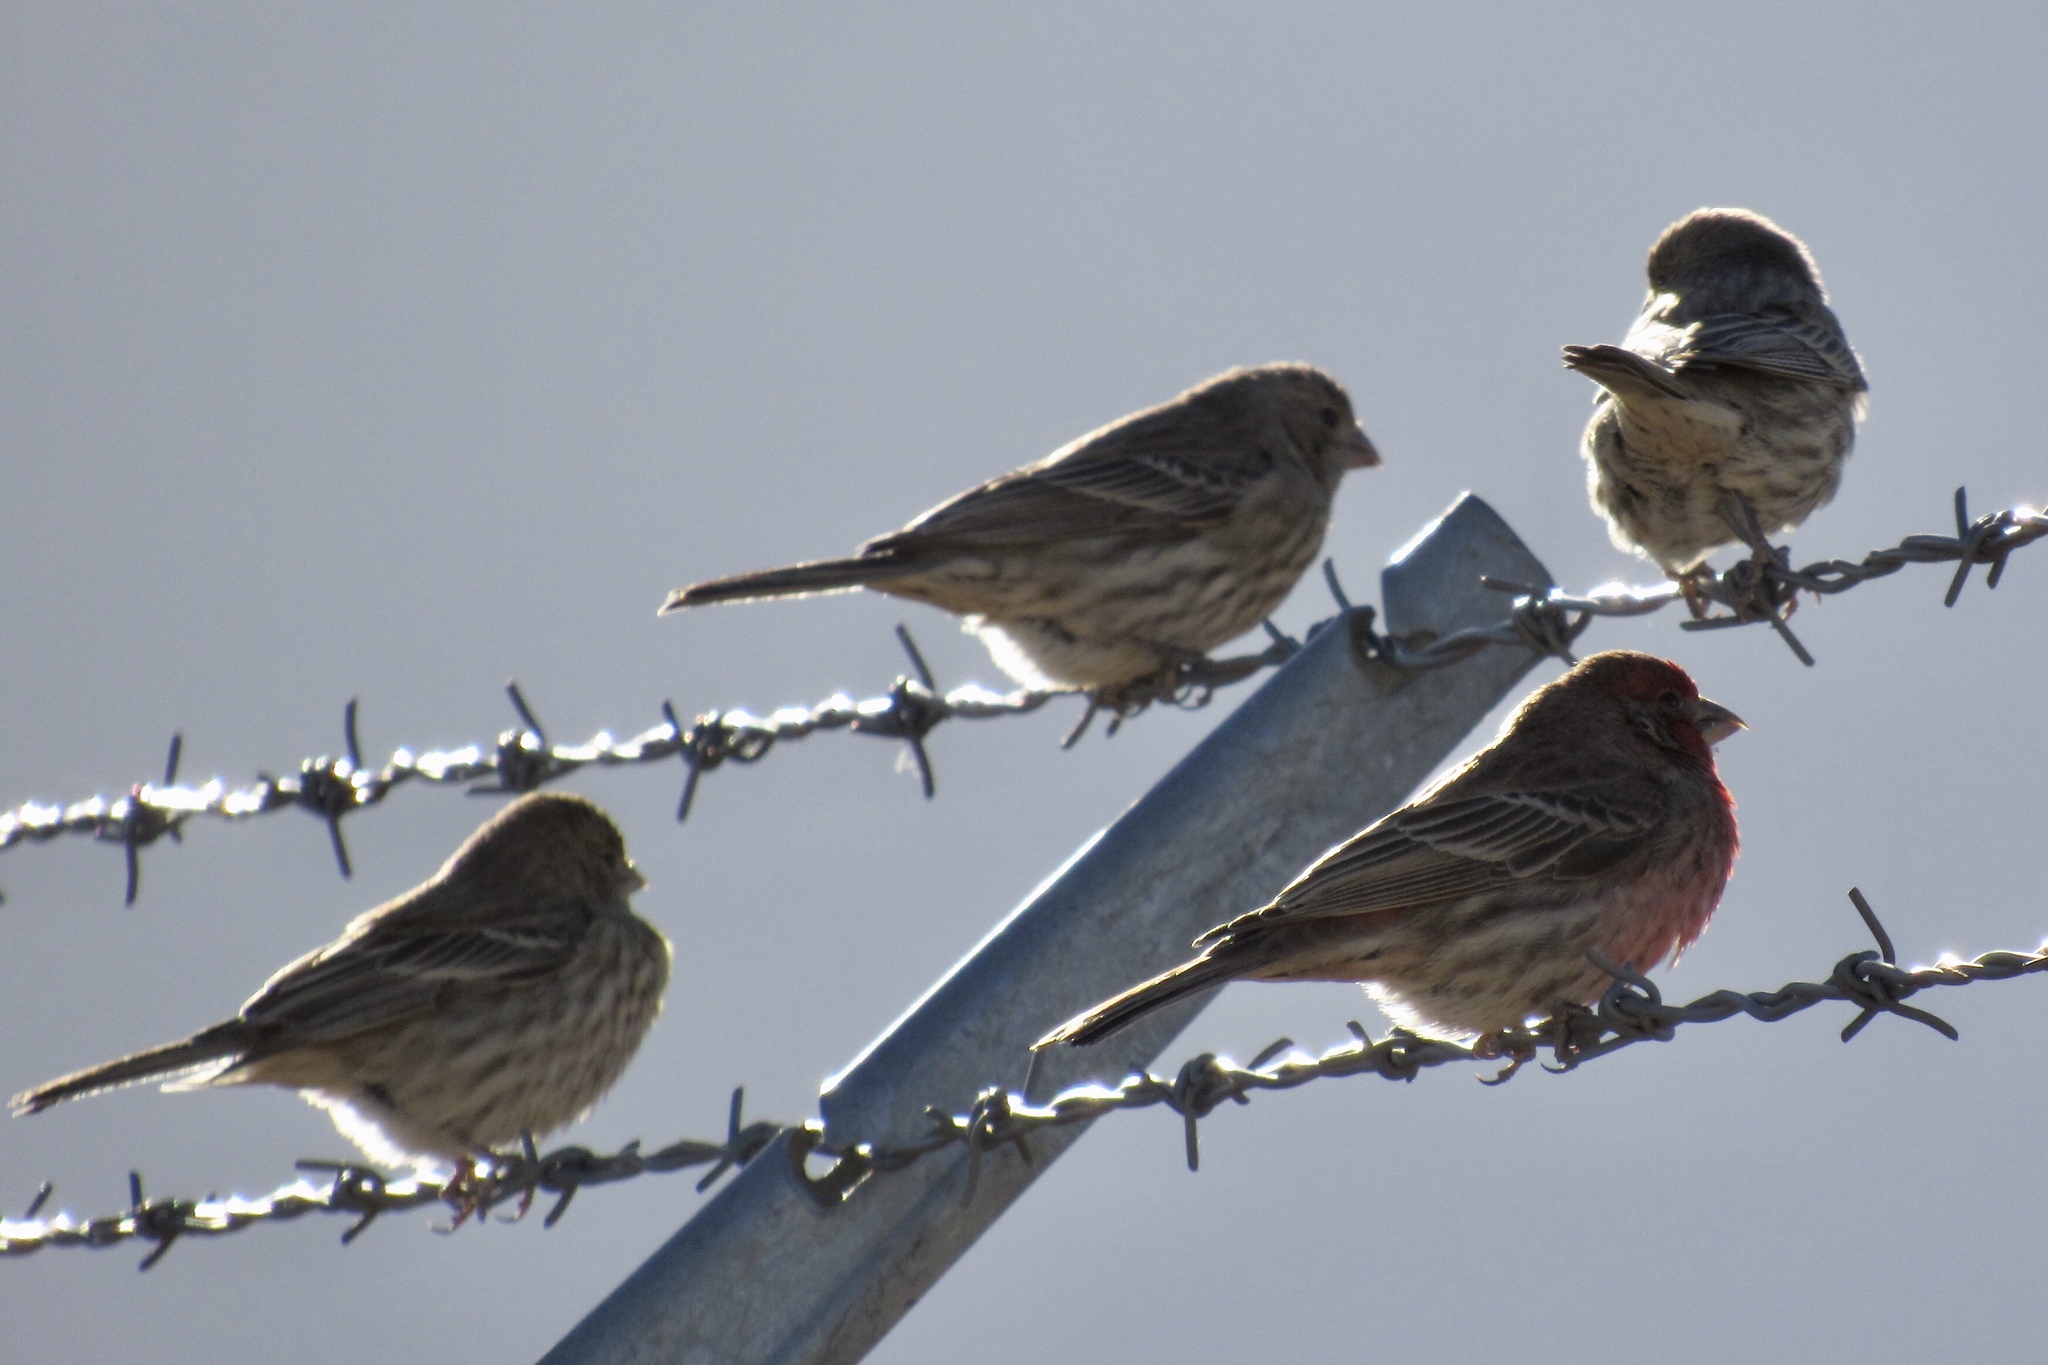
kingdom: Animalia
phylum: Chordata
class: Aves
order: Passeriformes
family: Fringillidae
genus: Haemorhous
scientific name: Haemorhous mexicanus
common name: House finch
